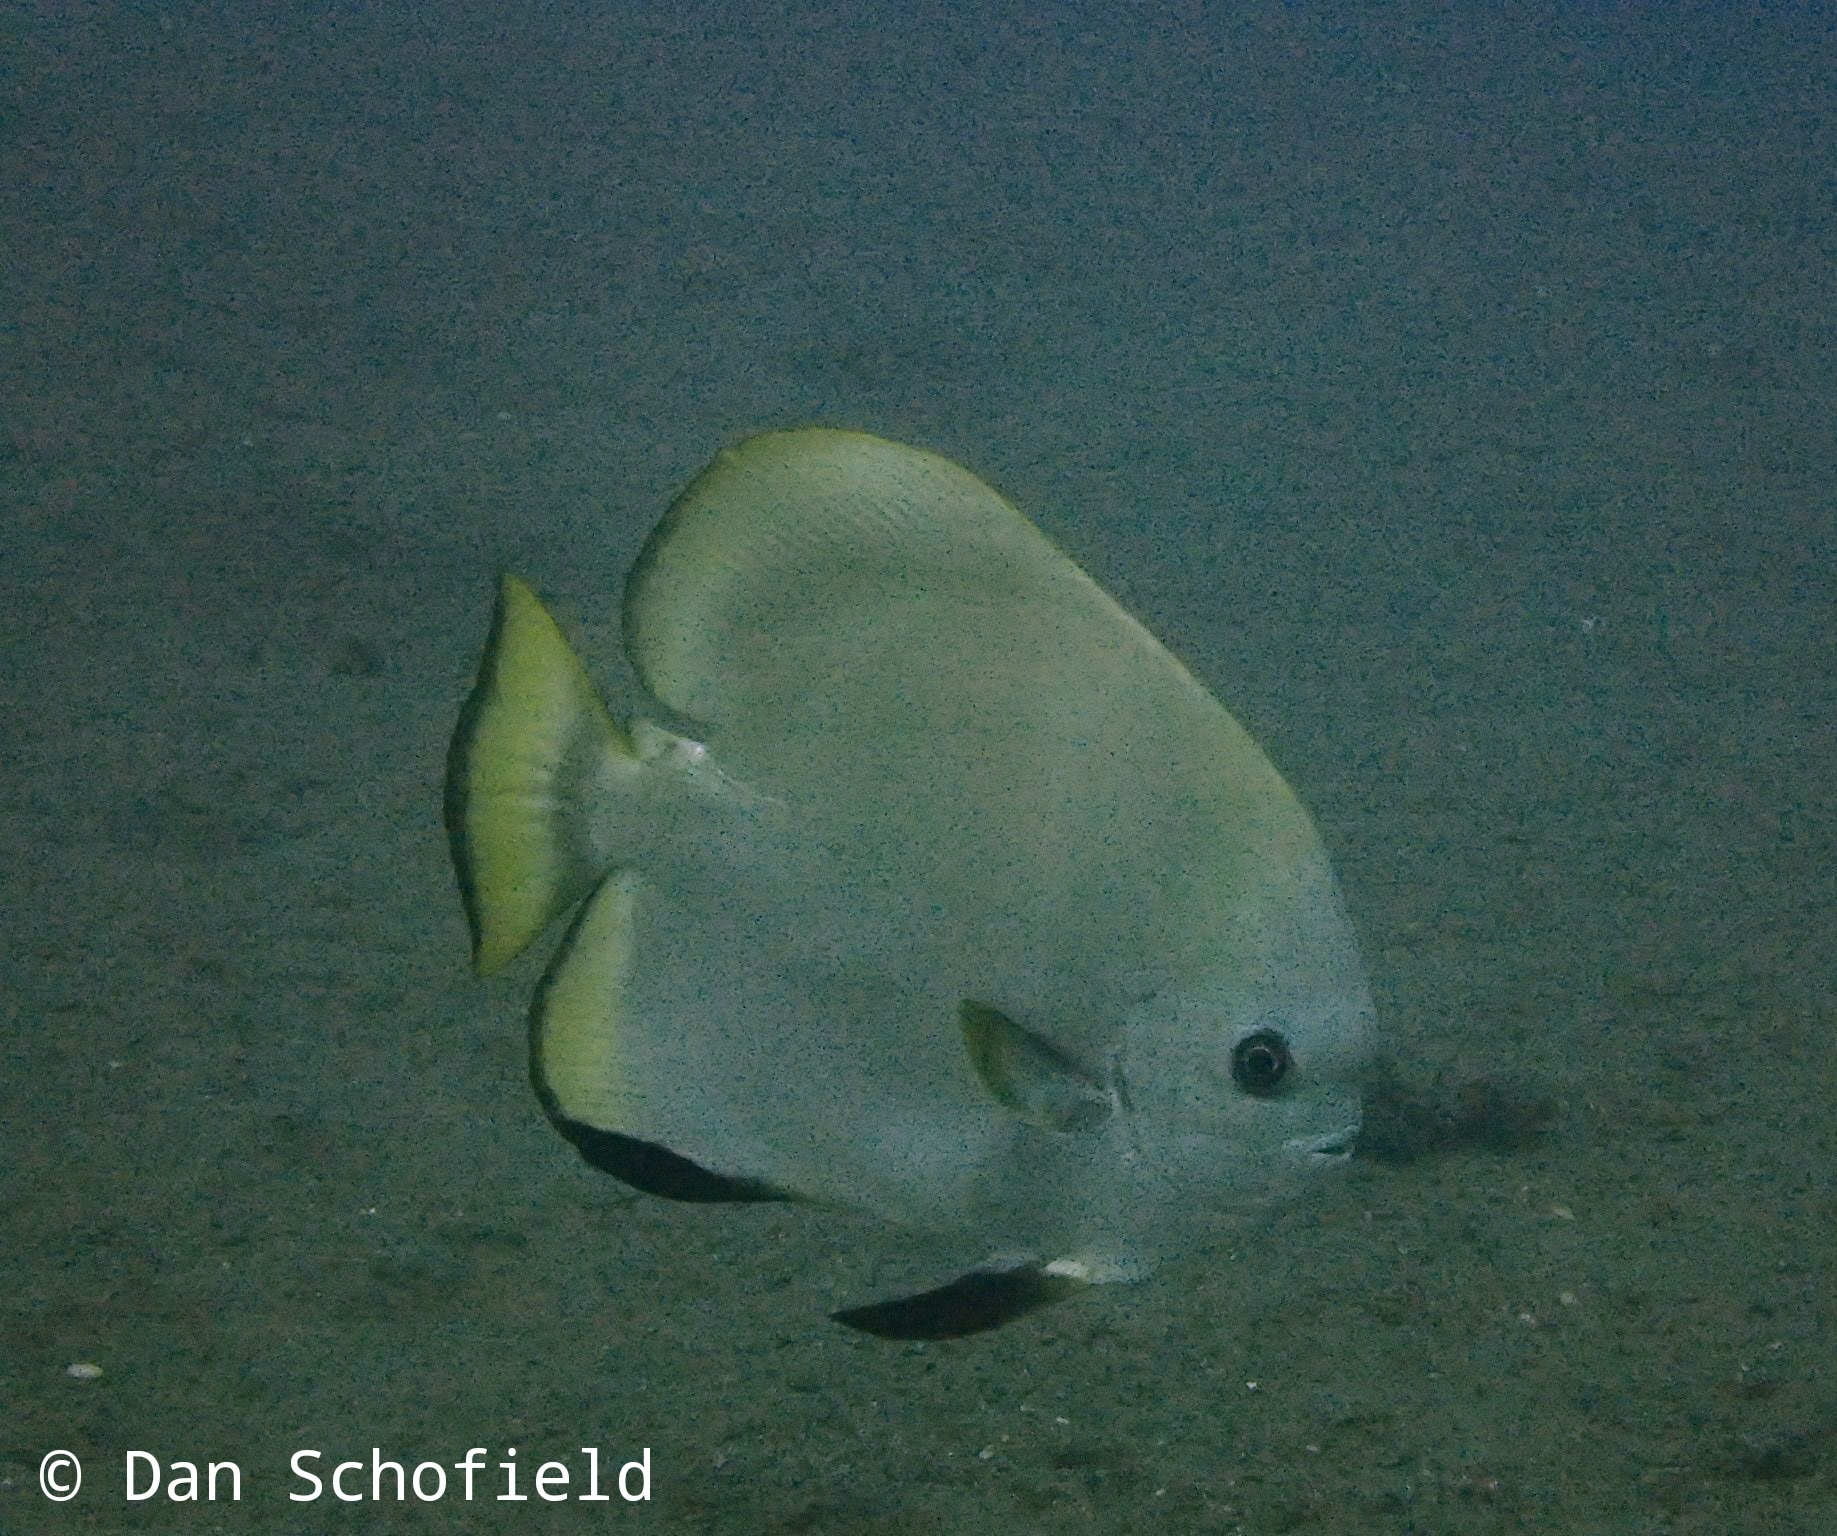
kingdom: Animalia
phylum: Chordata
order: Perciformes
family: Ephippidae
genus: Platax
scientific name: Platax orbicularis
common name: Batfish
